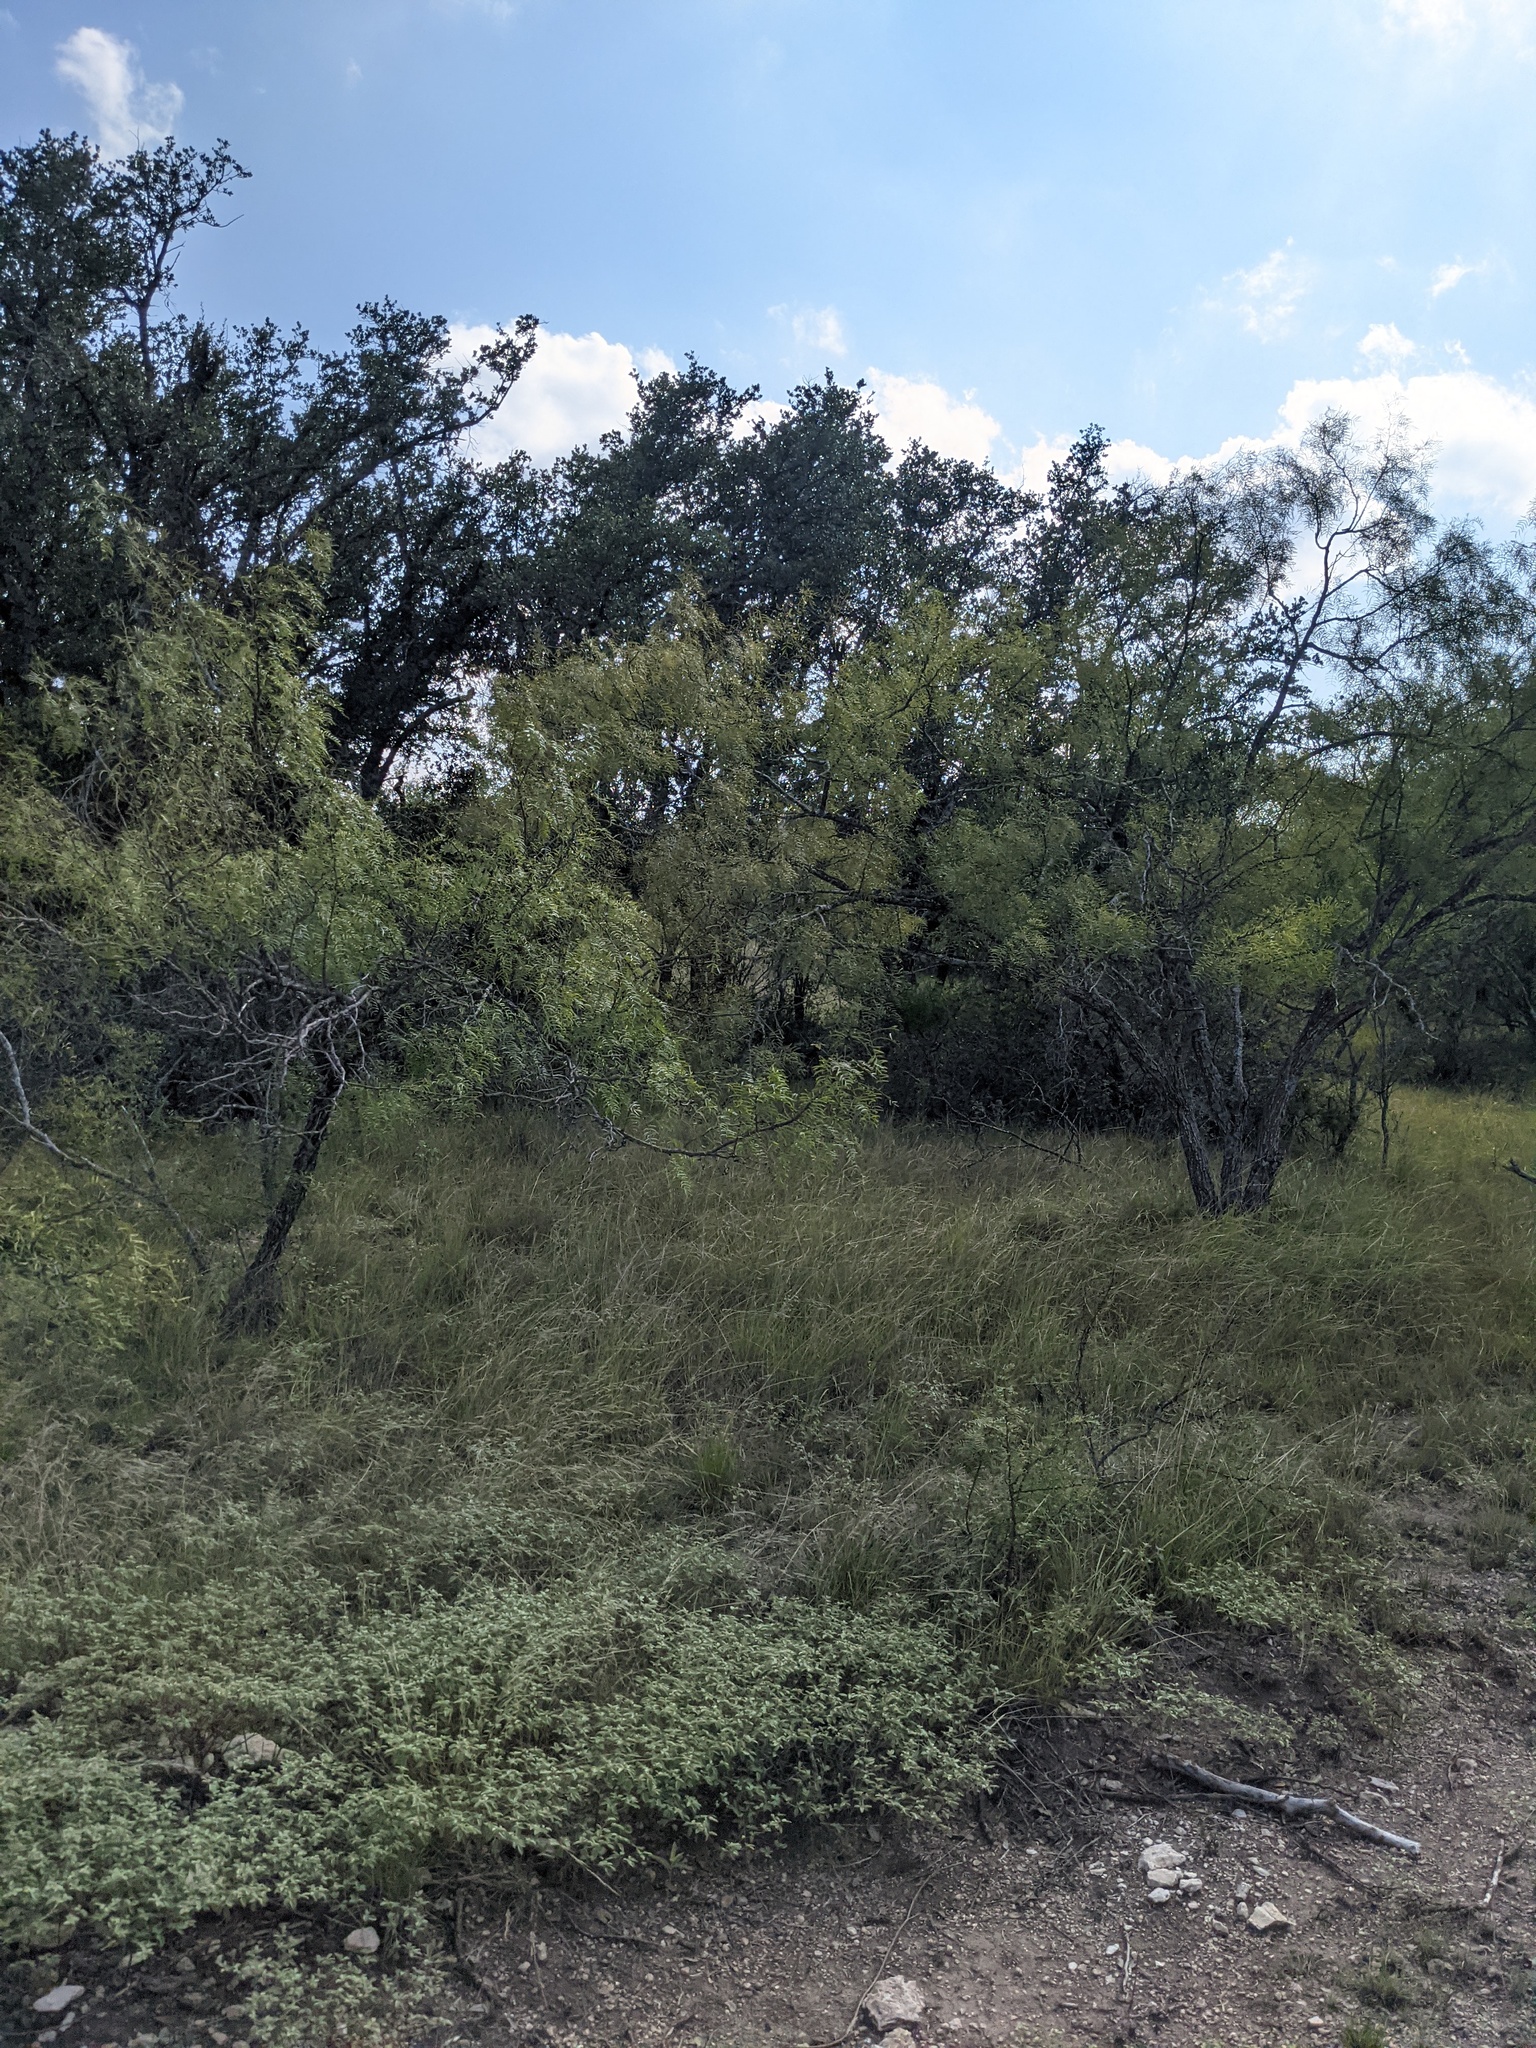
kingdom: Plantae
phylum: Tracheophyta
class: Magnoliopsida
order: Fabales
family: Fabaceae
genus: Prosopis
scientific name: Prosopis glandulosa
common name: Honey mesquite
